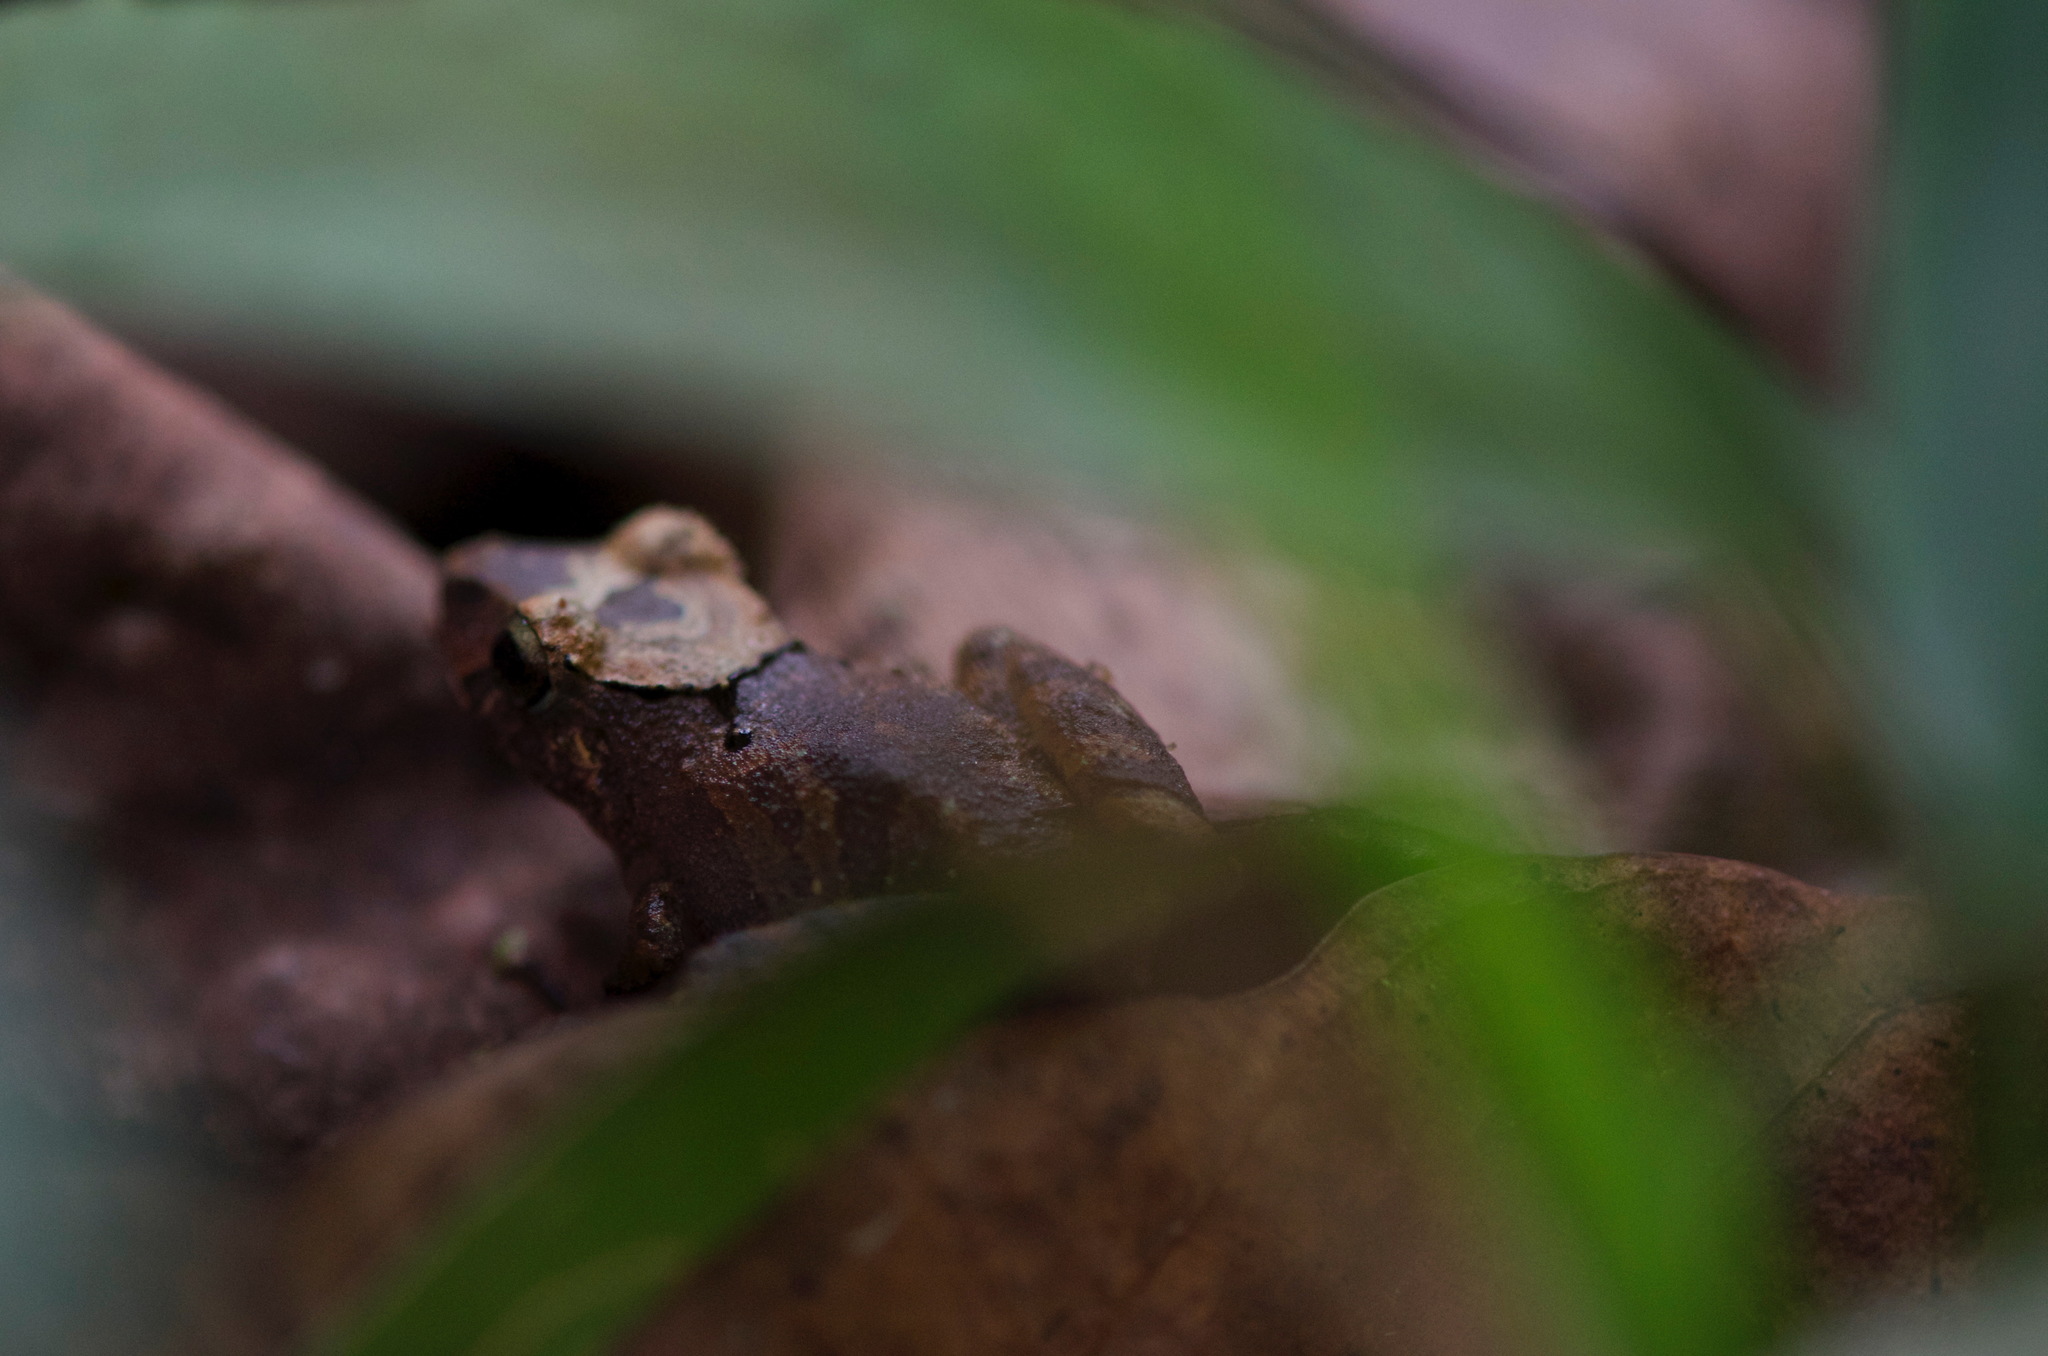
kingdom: Animalia
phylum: Chordata
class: Amphibia
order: Anura
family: Craugastoridae
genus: Pristimantis
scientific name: Pristimantis altamnis
